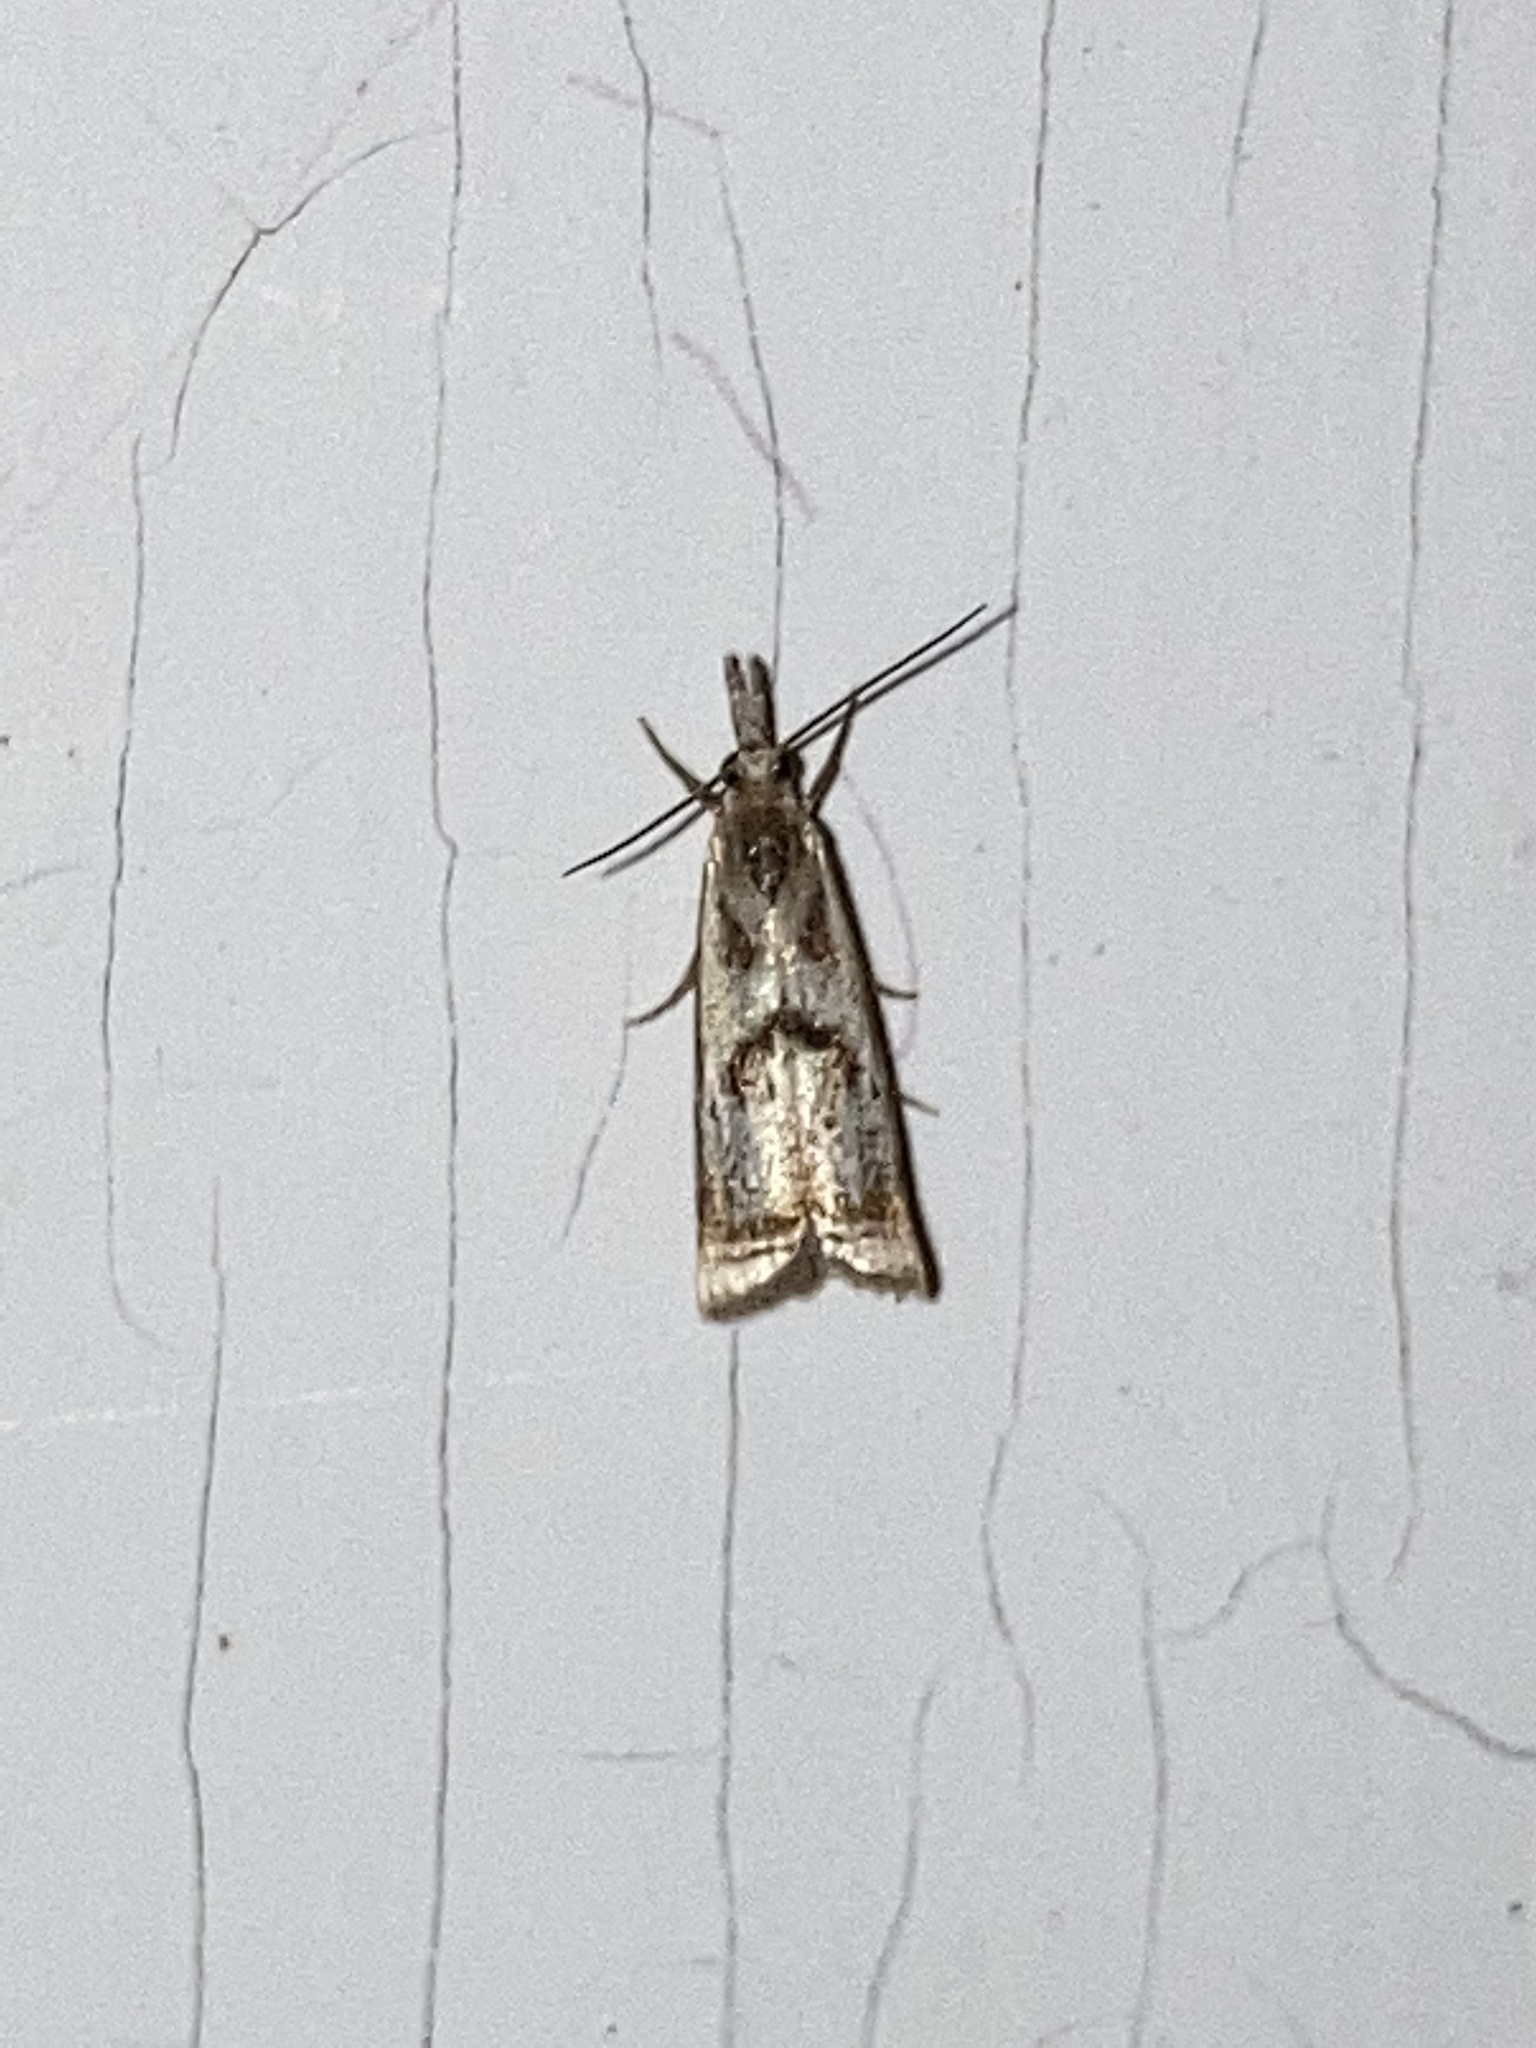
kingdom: Animalia
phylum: Arthropoda
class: Insecta
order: Lepidoptera
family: Crambidae
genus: Microcrambus
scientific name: Microcrambus elegans
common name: Elegant grass-veneer
